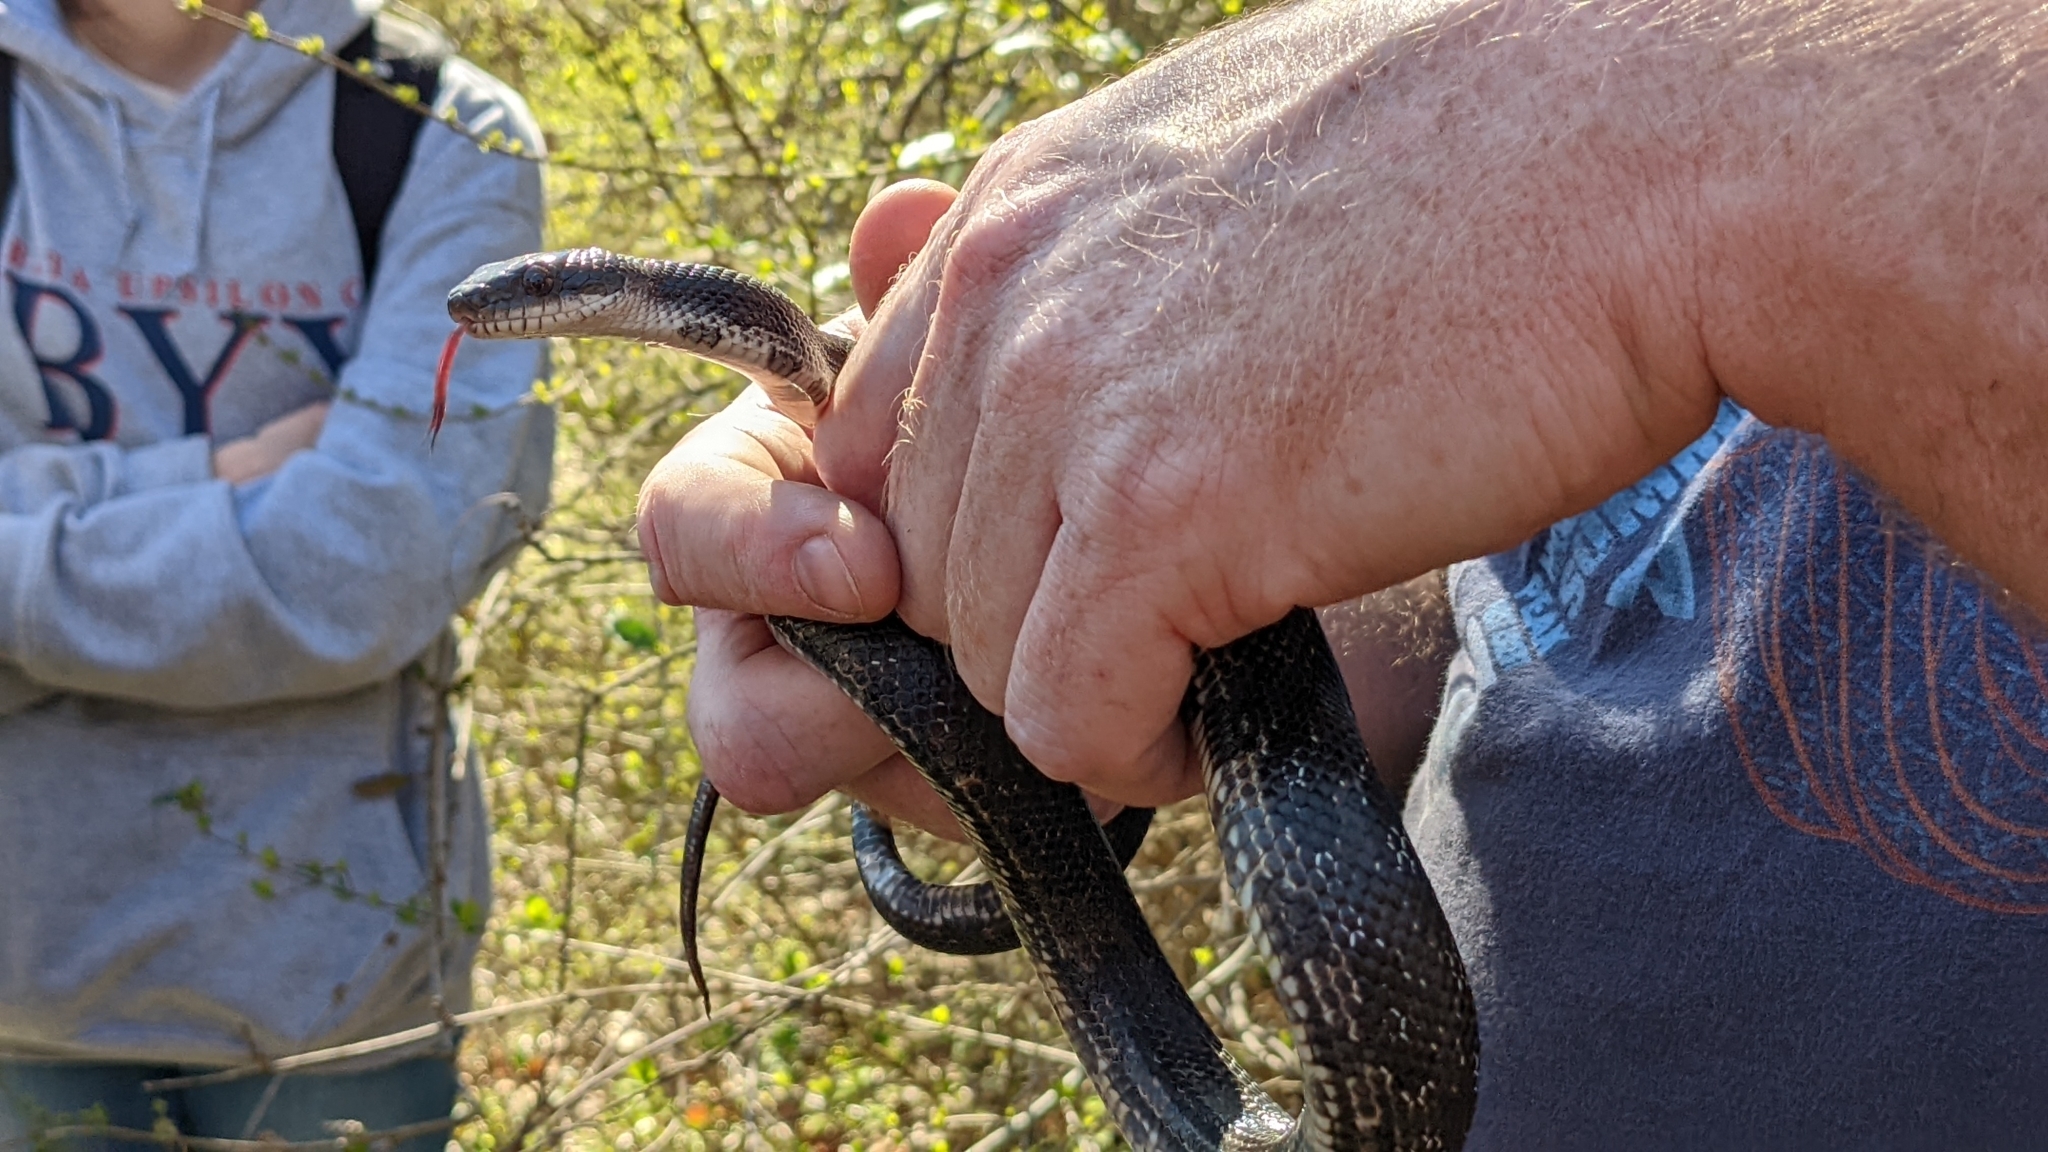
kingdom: Animalia
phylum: Chordata
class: Squamata
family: Colubridae
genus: Pantherophis
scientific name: Pantherophis obsoletus
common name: Black rat snake
